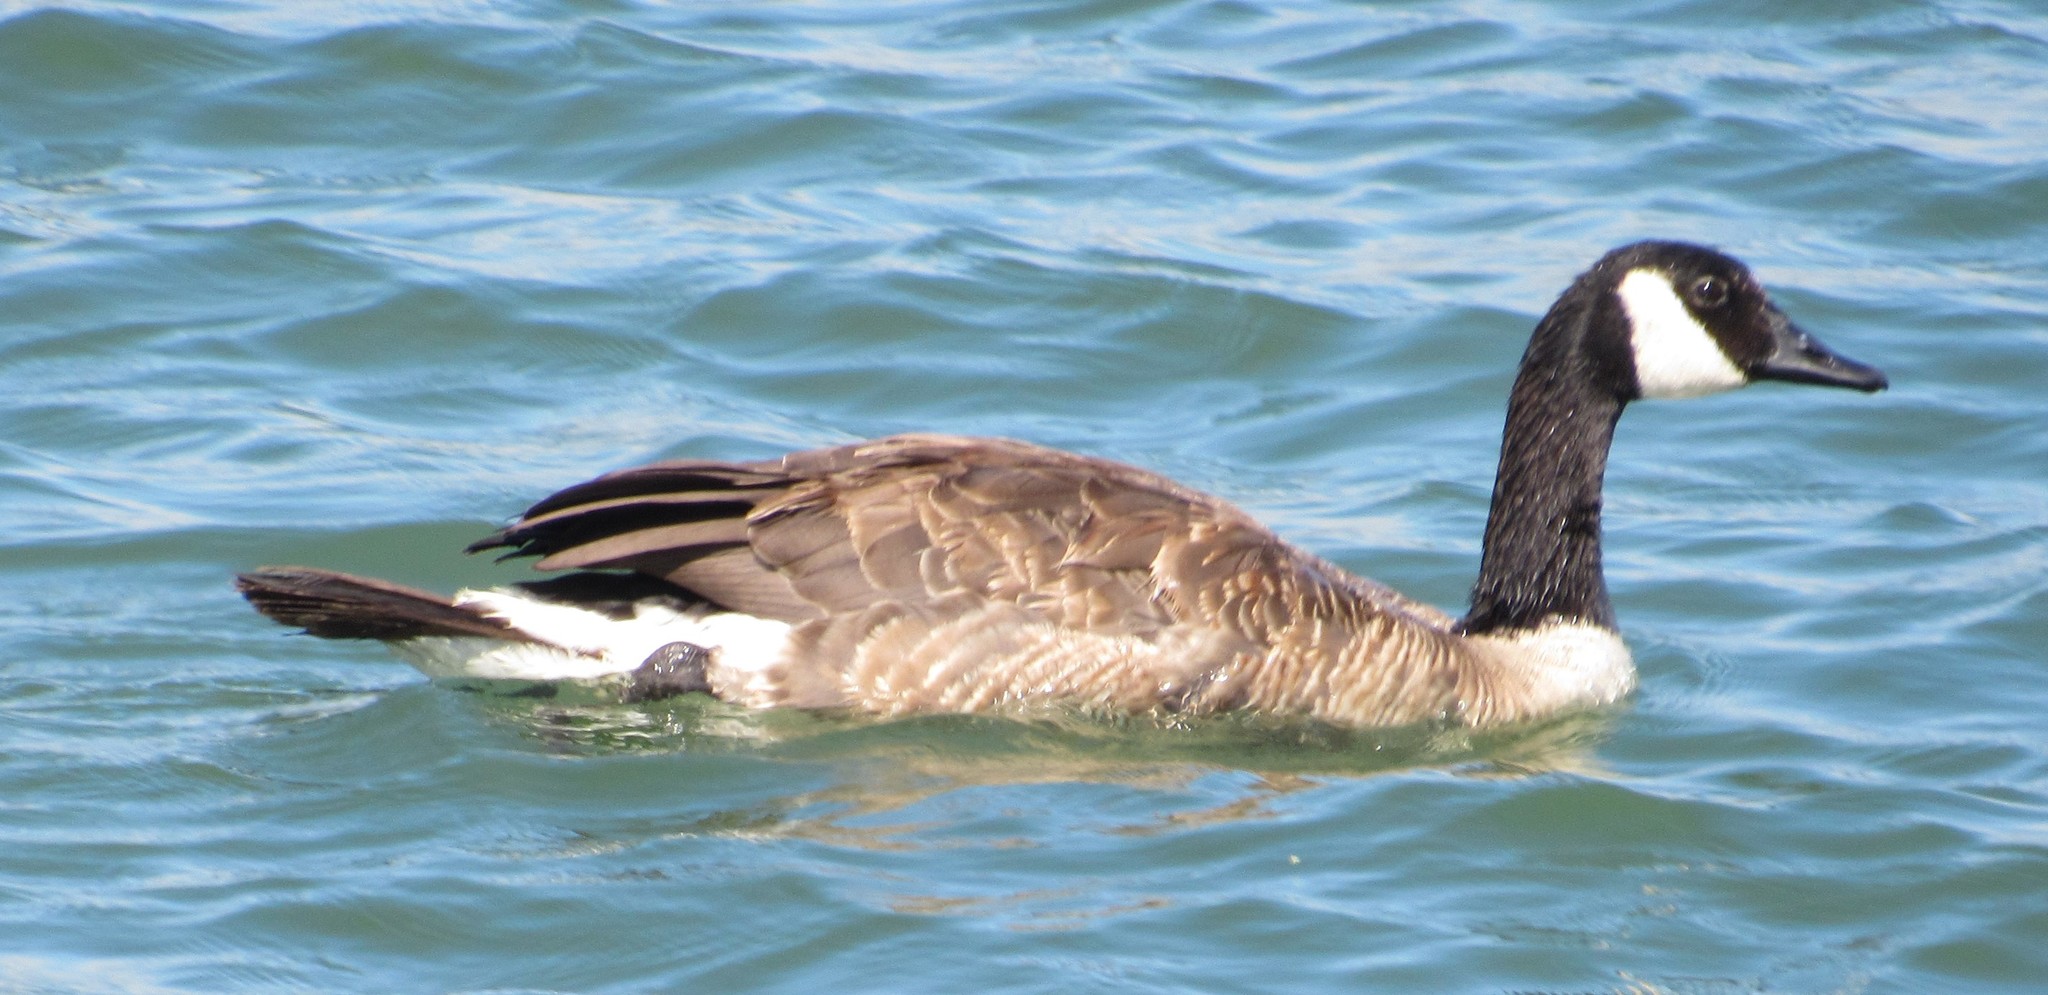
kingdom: Animalia
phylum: Chordata
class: Aves
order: Anseriformes
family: Anatidae
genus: Branta
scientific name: Branta canadensis
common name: Canada goose
